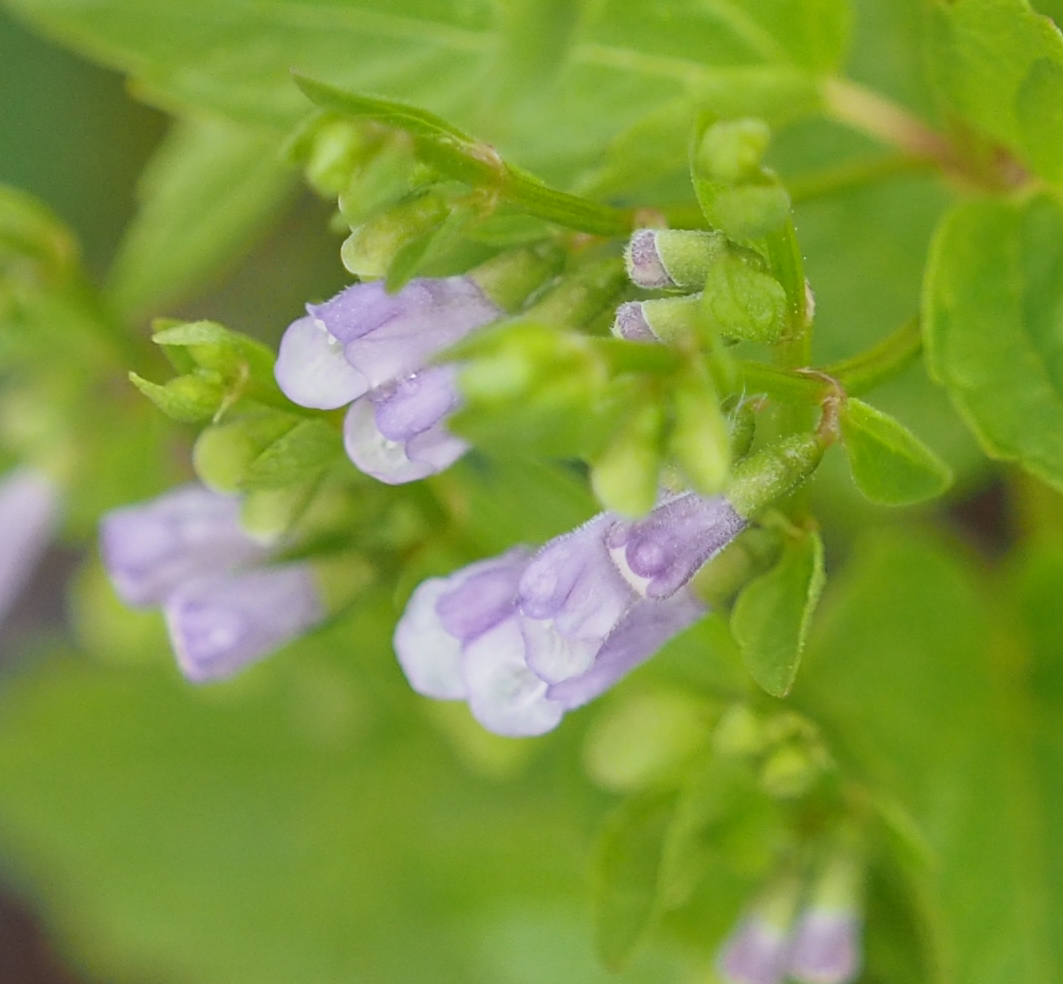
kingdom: Plantae
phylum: Tracheophyta
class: Magnoliopsida
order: Lamiales
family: Lamiaceae
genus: Scutellaria
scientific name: Scutellaria lateriflora
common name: Blue skullcap
